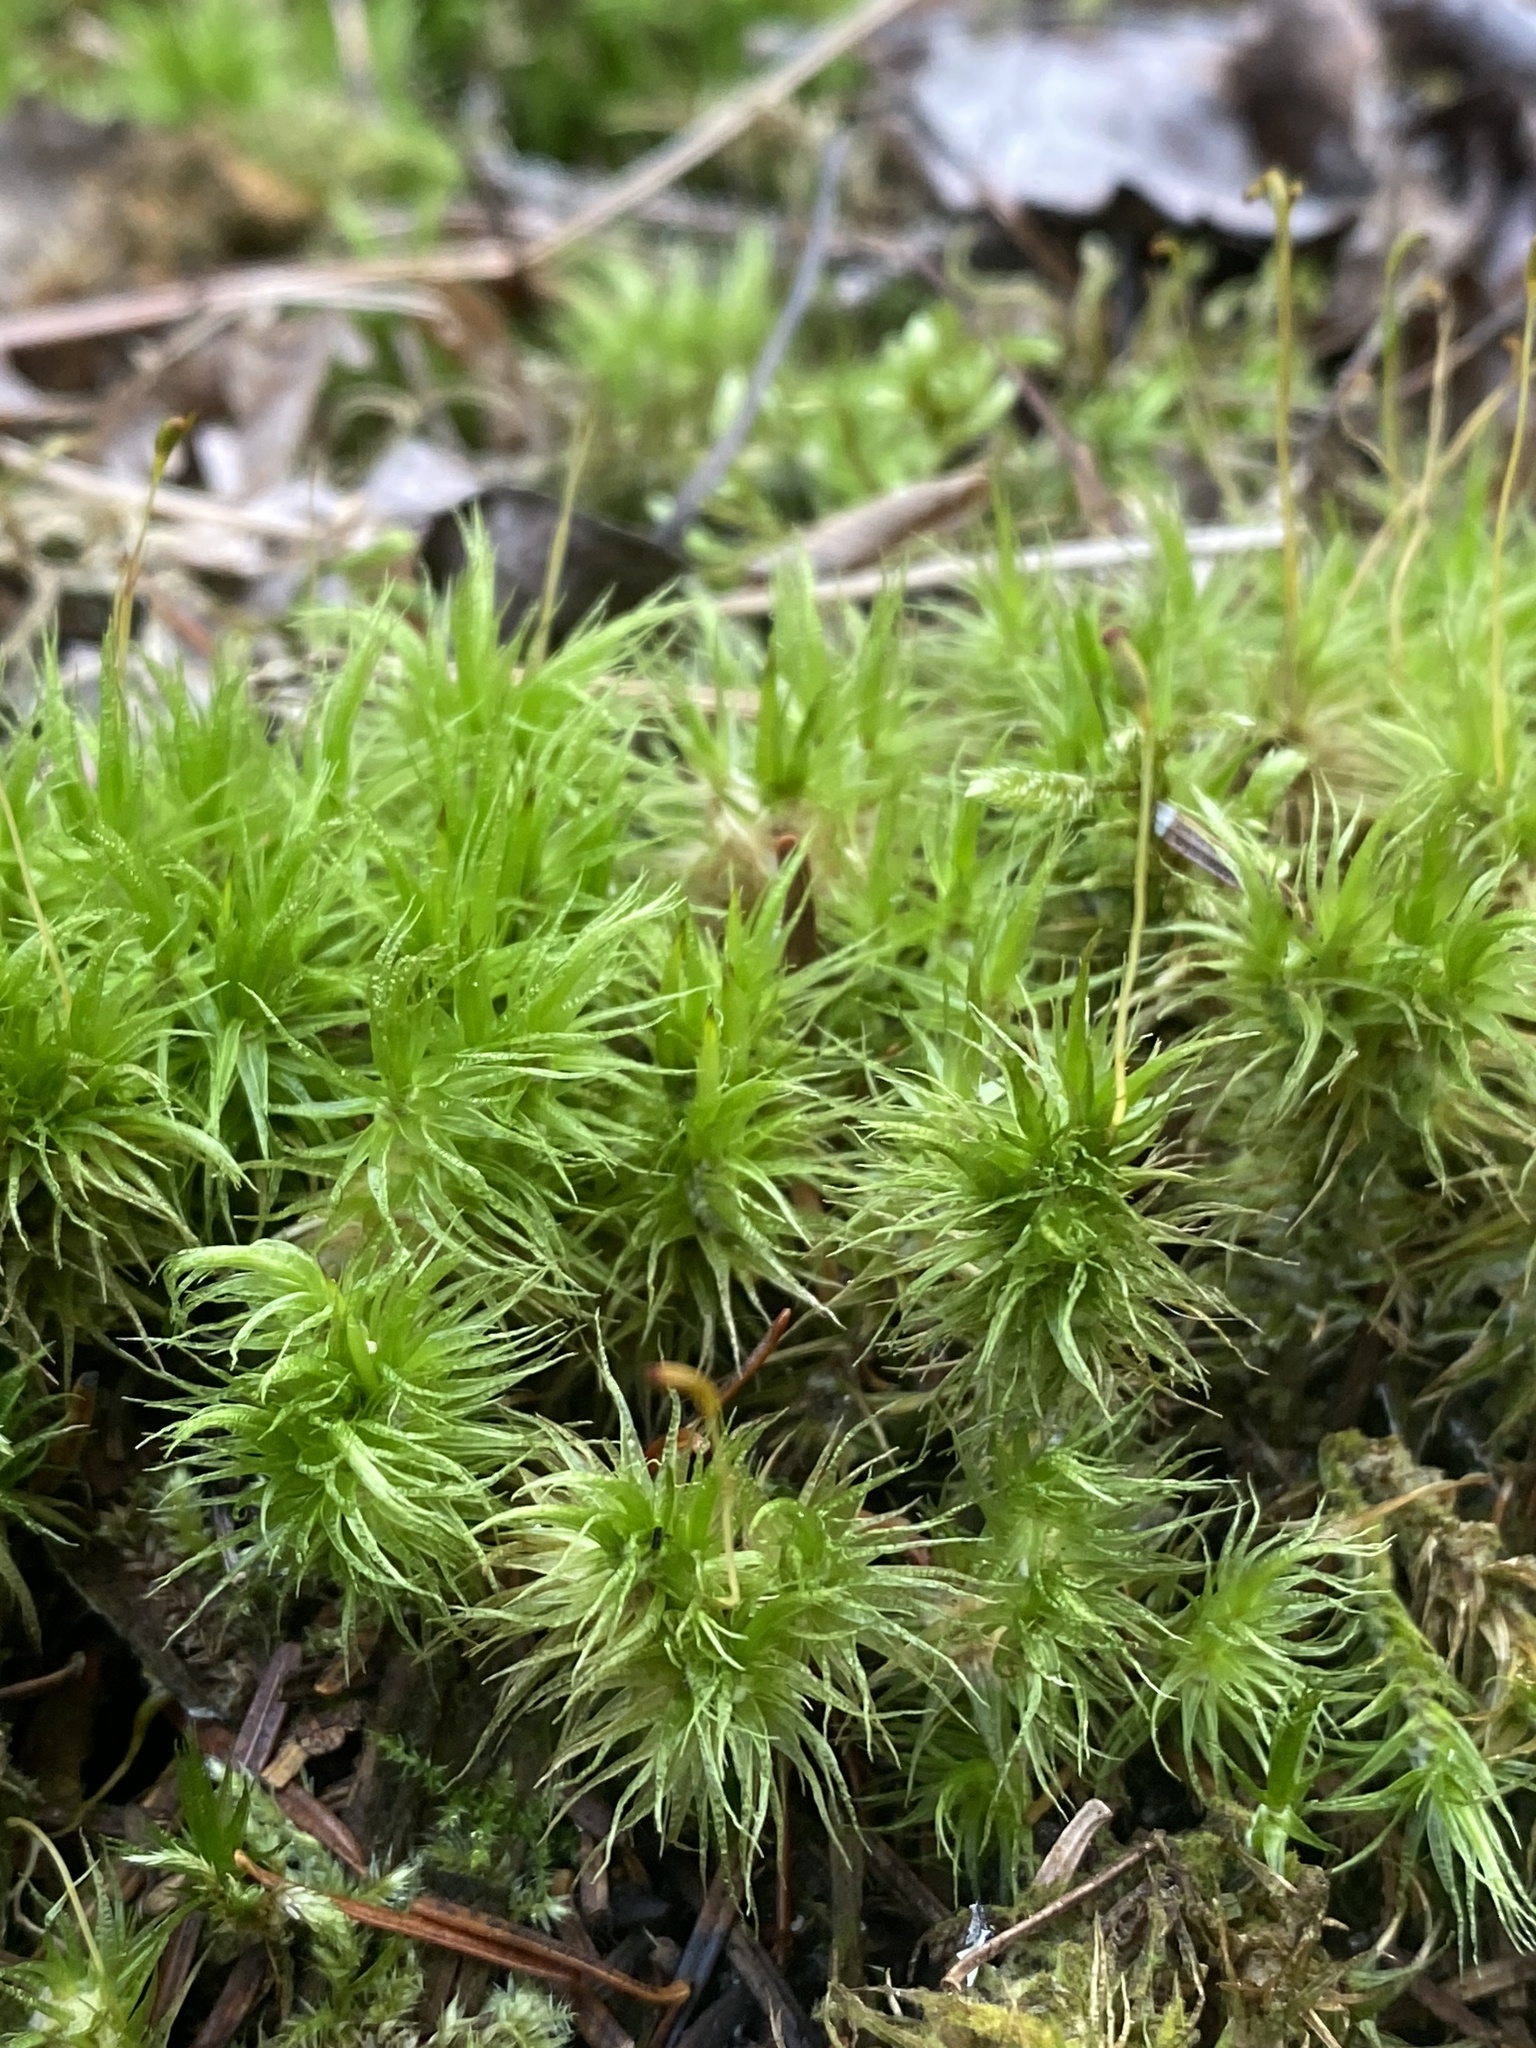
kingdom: Plantae
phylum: Bryophyta
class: Bryopsida
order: Dicranales
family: Dicranaceae
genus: Dicranum
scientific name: Dicranum polysetum
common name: Rugose fork-moss
